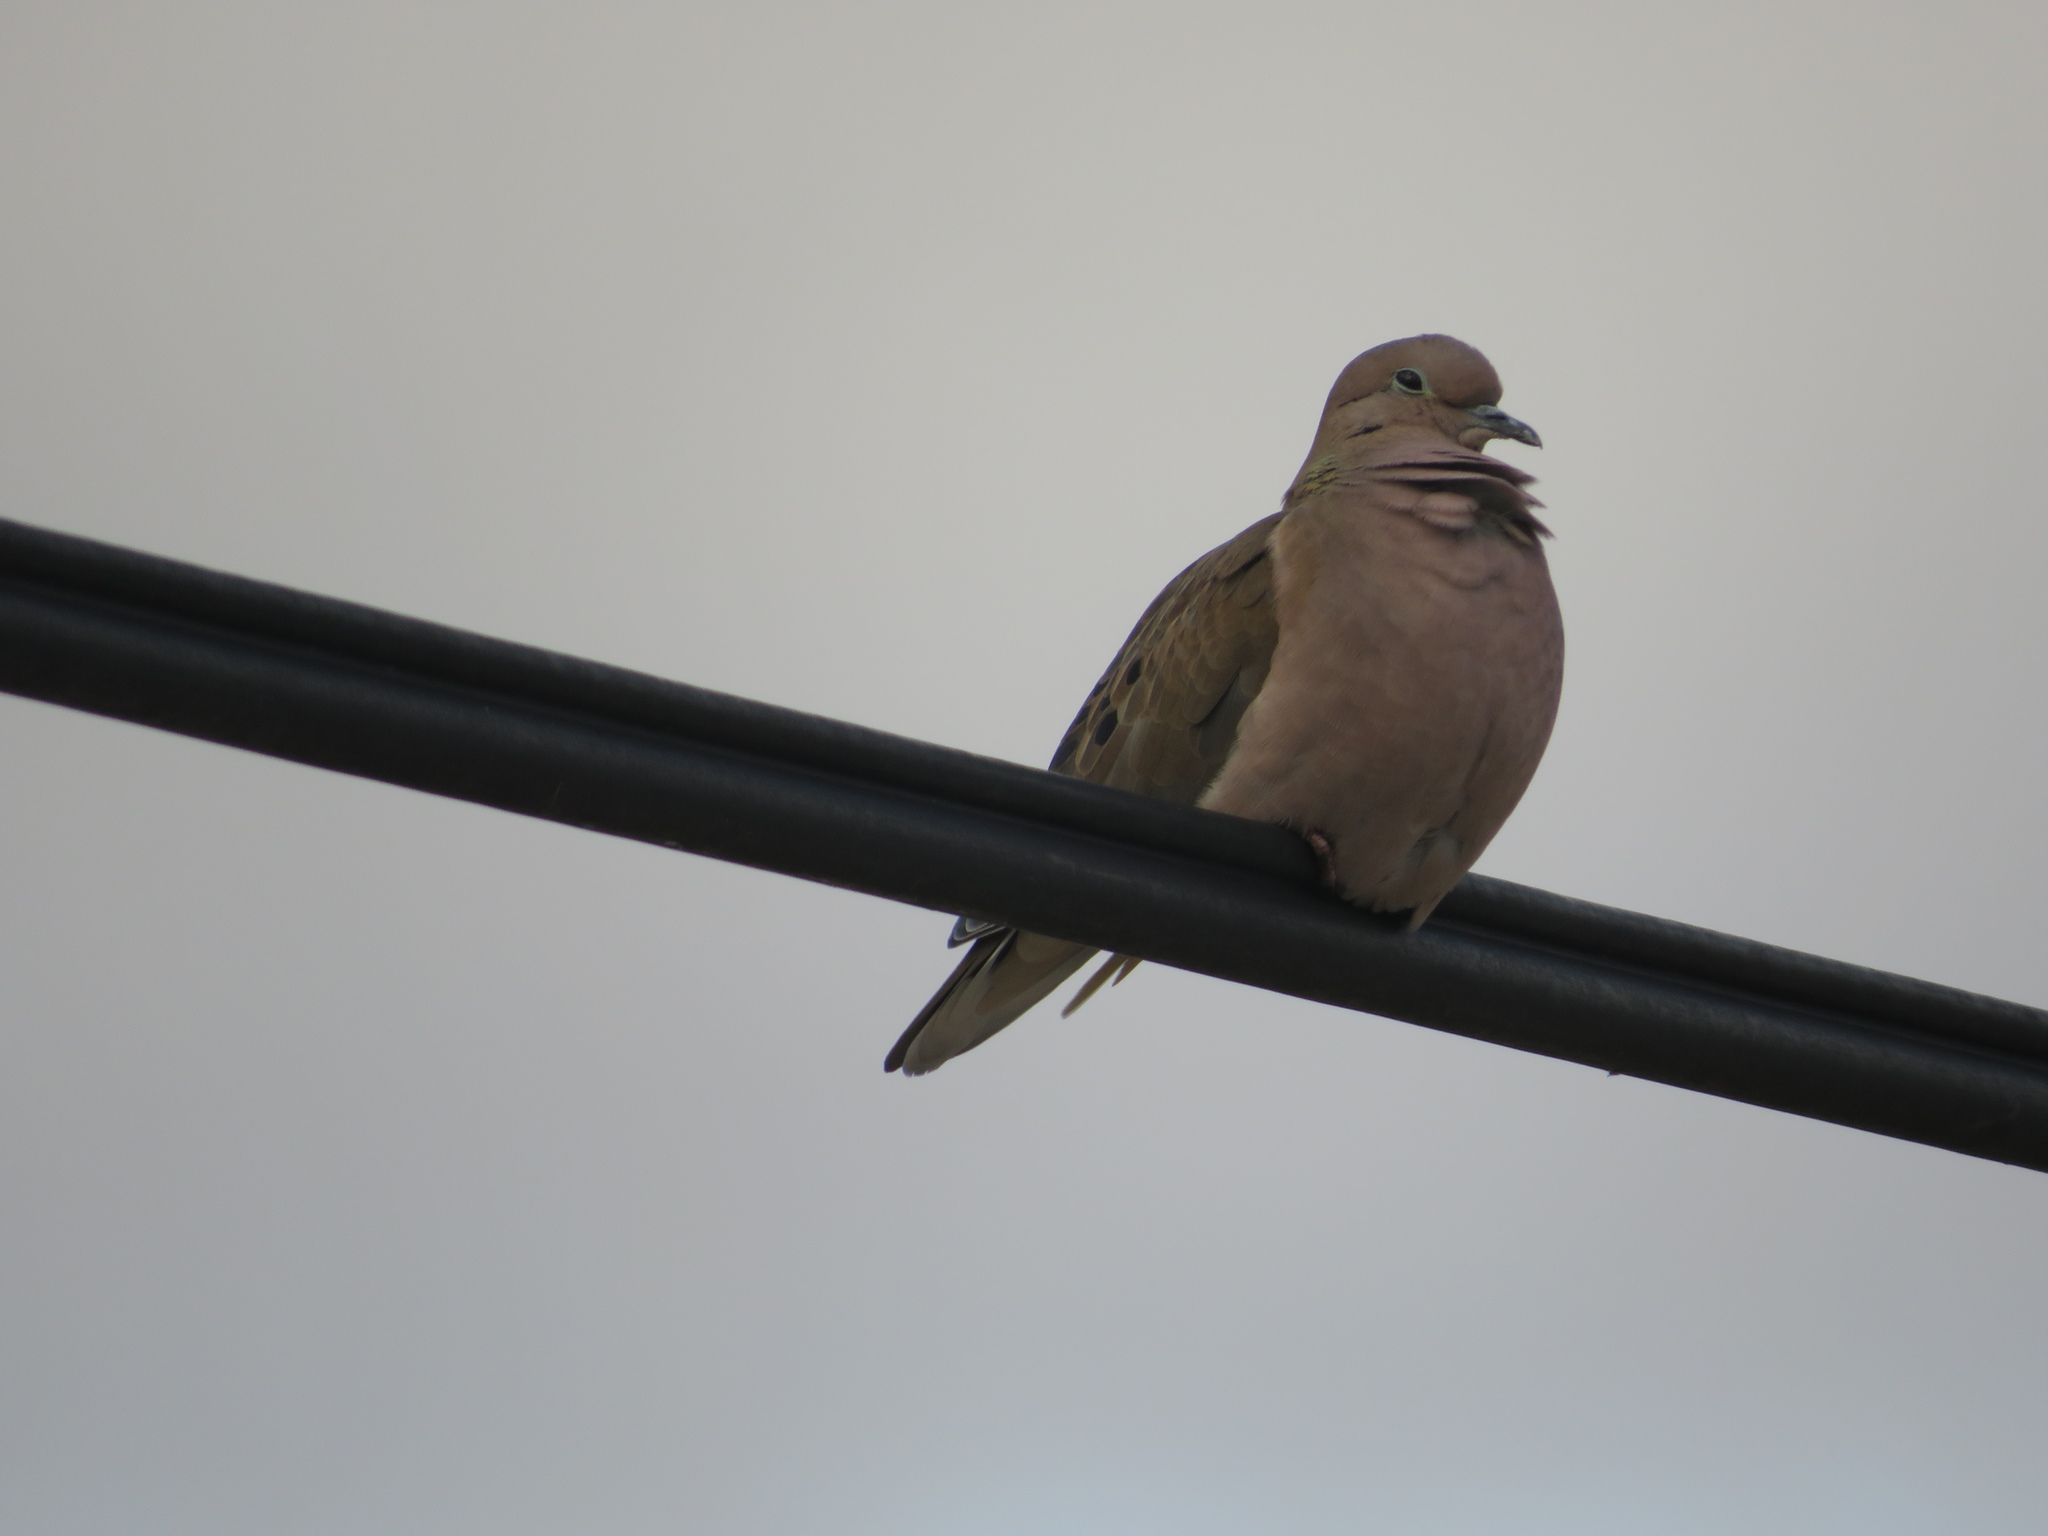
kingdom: Animalia
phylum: Chordata
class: Aves
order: Columbiformes
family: Columbidae
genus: Zenaida
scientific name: Zenaida auriculata
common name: Eared dove
